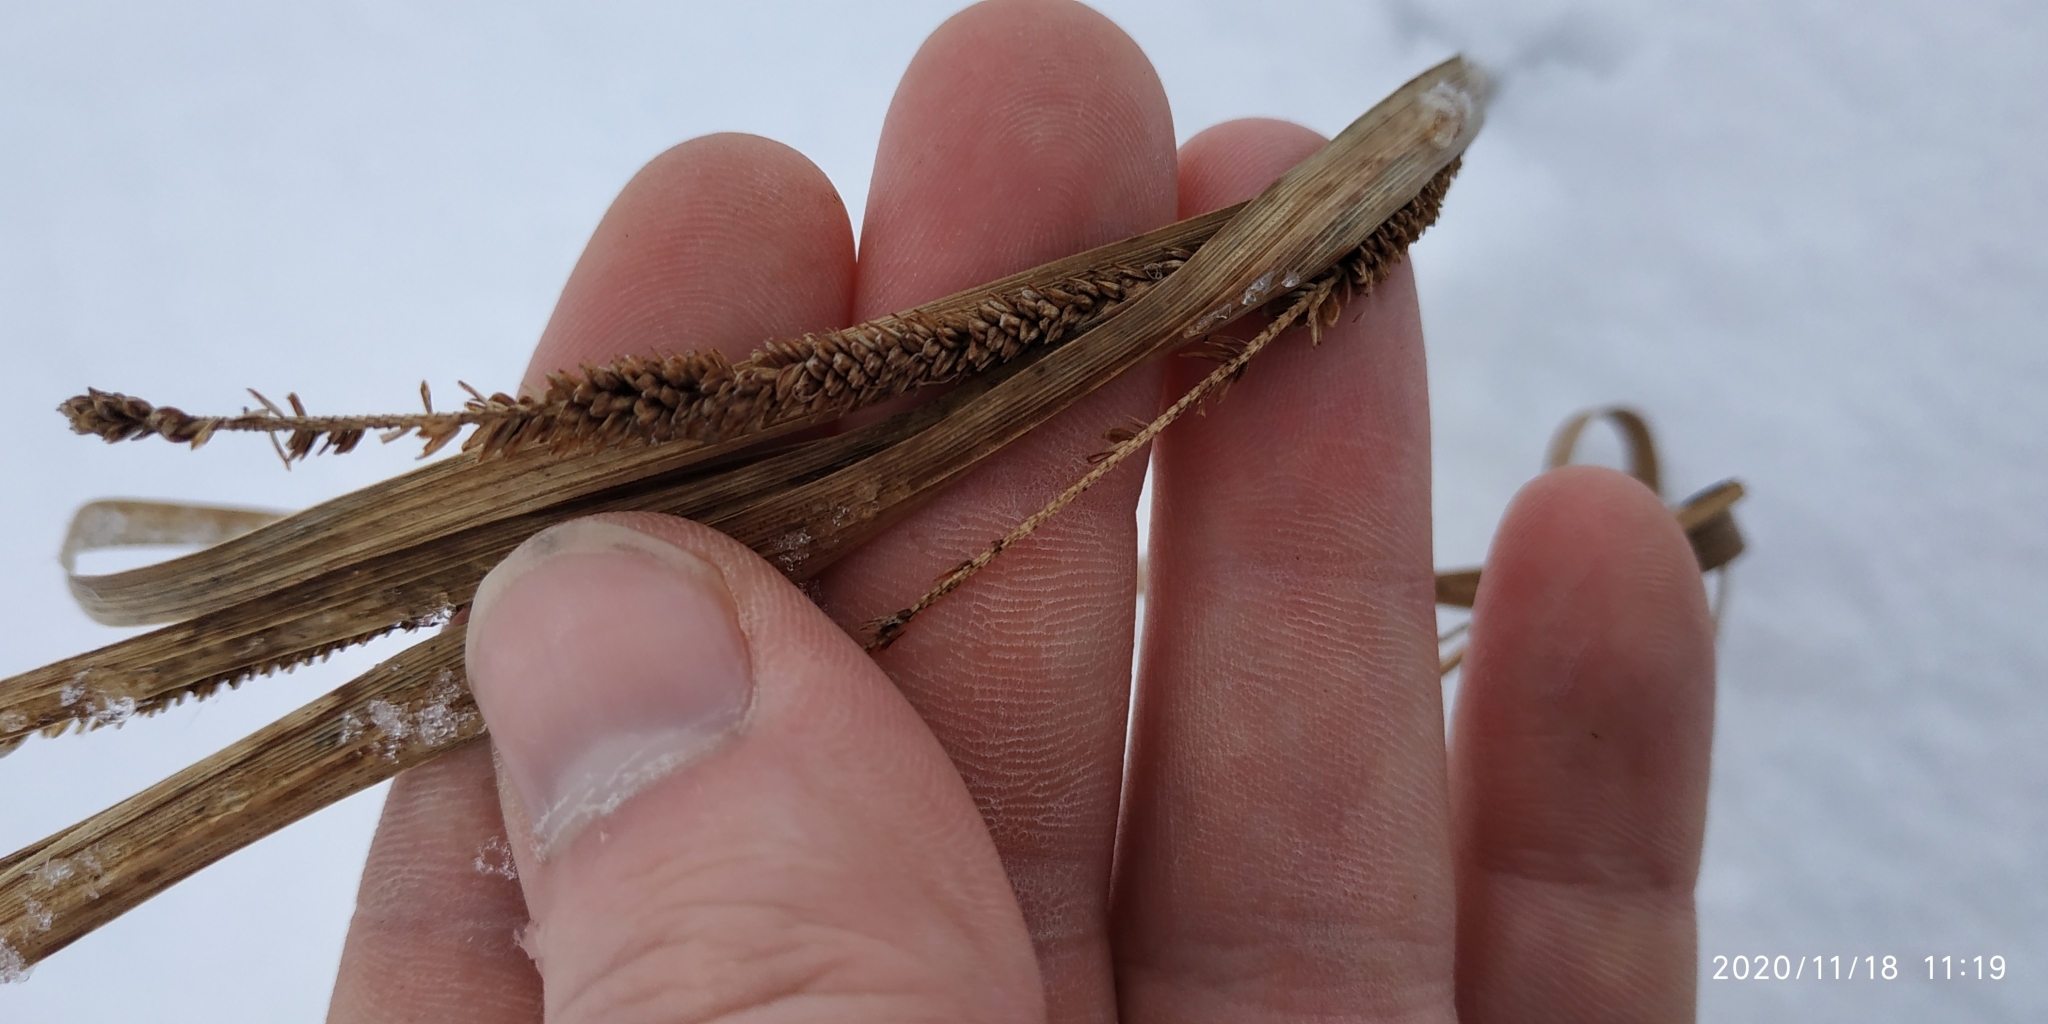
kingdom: Plantae
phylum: Tracheophyta
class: Liliopsida
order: Poales
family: Cyperaceae
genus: Carex
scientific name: Carex aquatilis
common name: Water sedge
